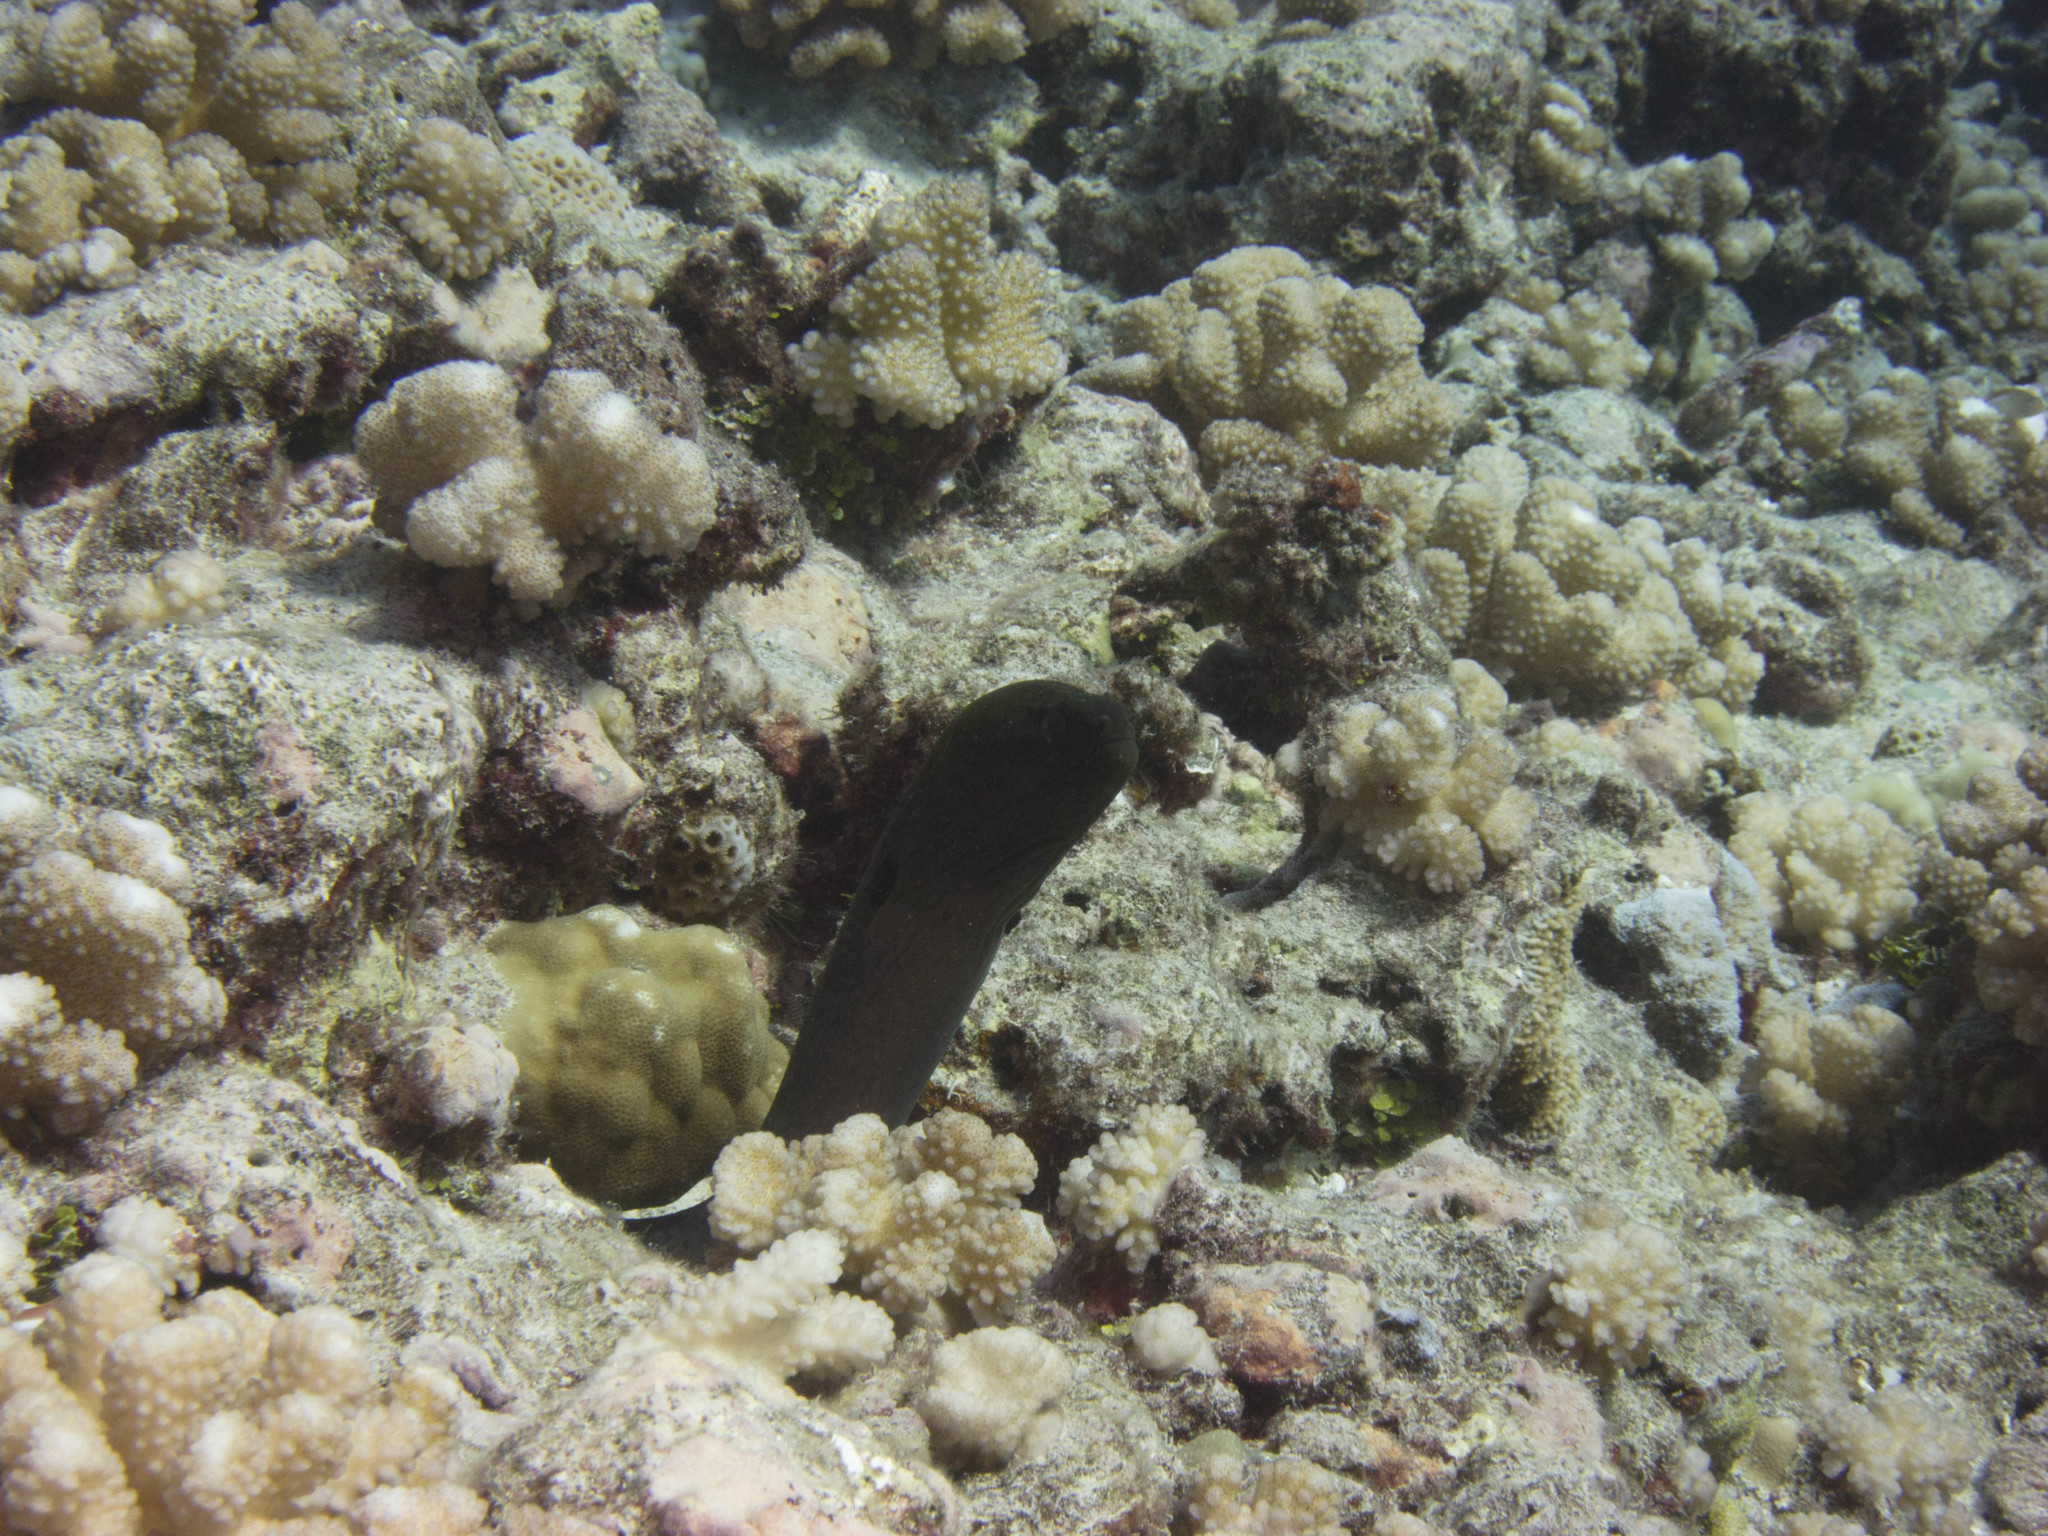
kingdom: Animalia
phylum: Chordata
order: Anguilliformes
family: Muraenidae
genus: Gymnothorax
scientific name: Gymnothorax javanicus
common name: Giant moray
